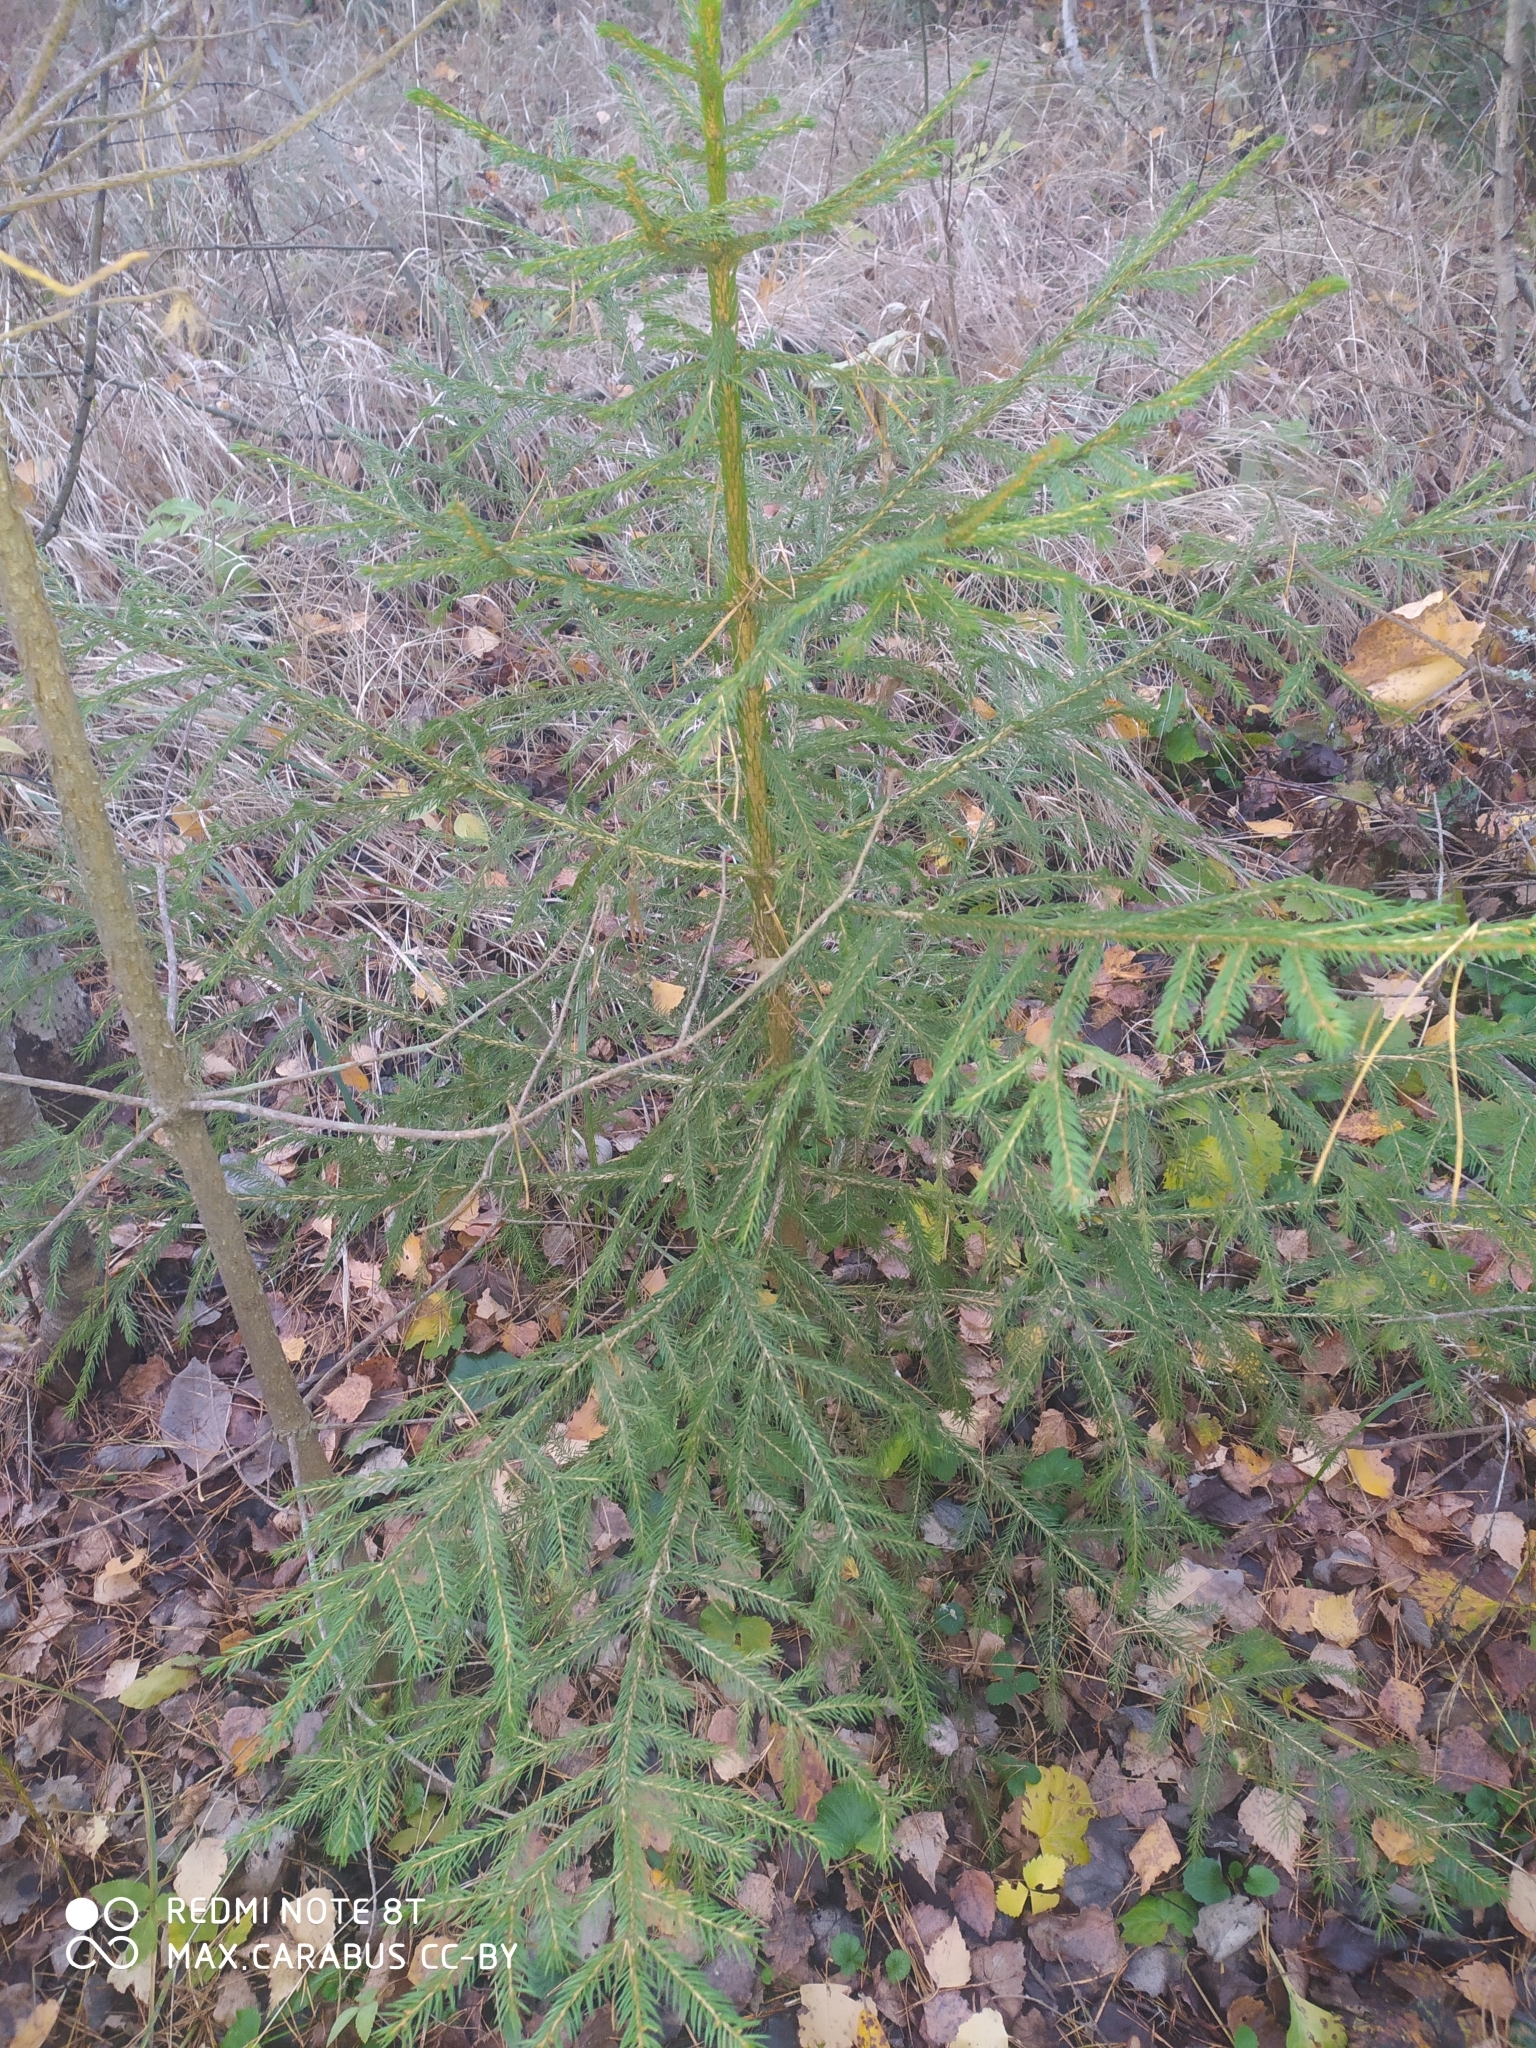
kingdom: Plantae
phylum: Tracheophyta
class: Pinopsida
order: Pinales
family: Pinaceae
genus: Picea
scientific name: Picea abies
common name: Norway spruce
